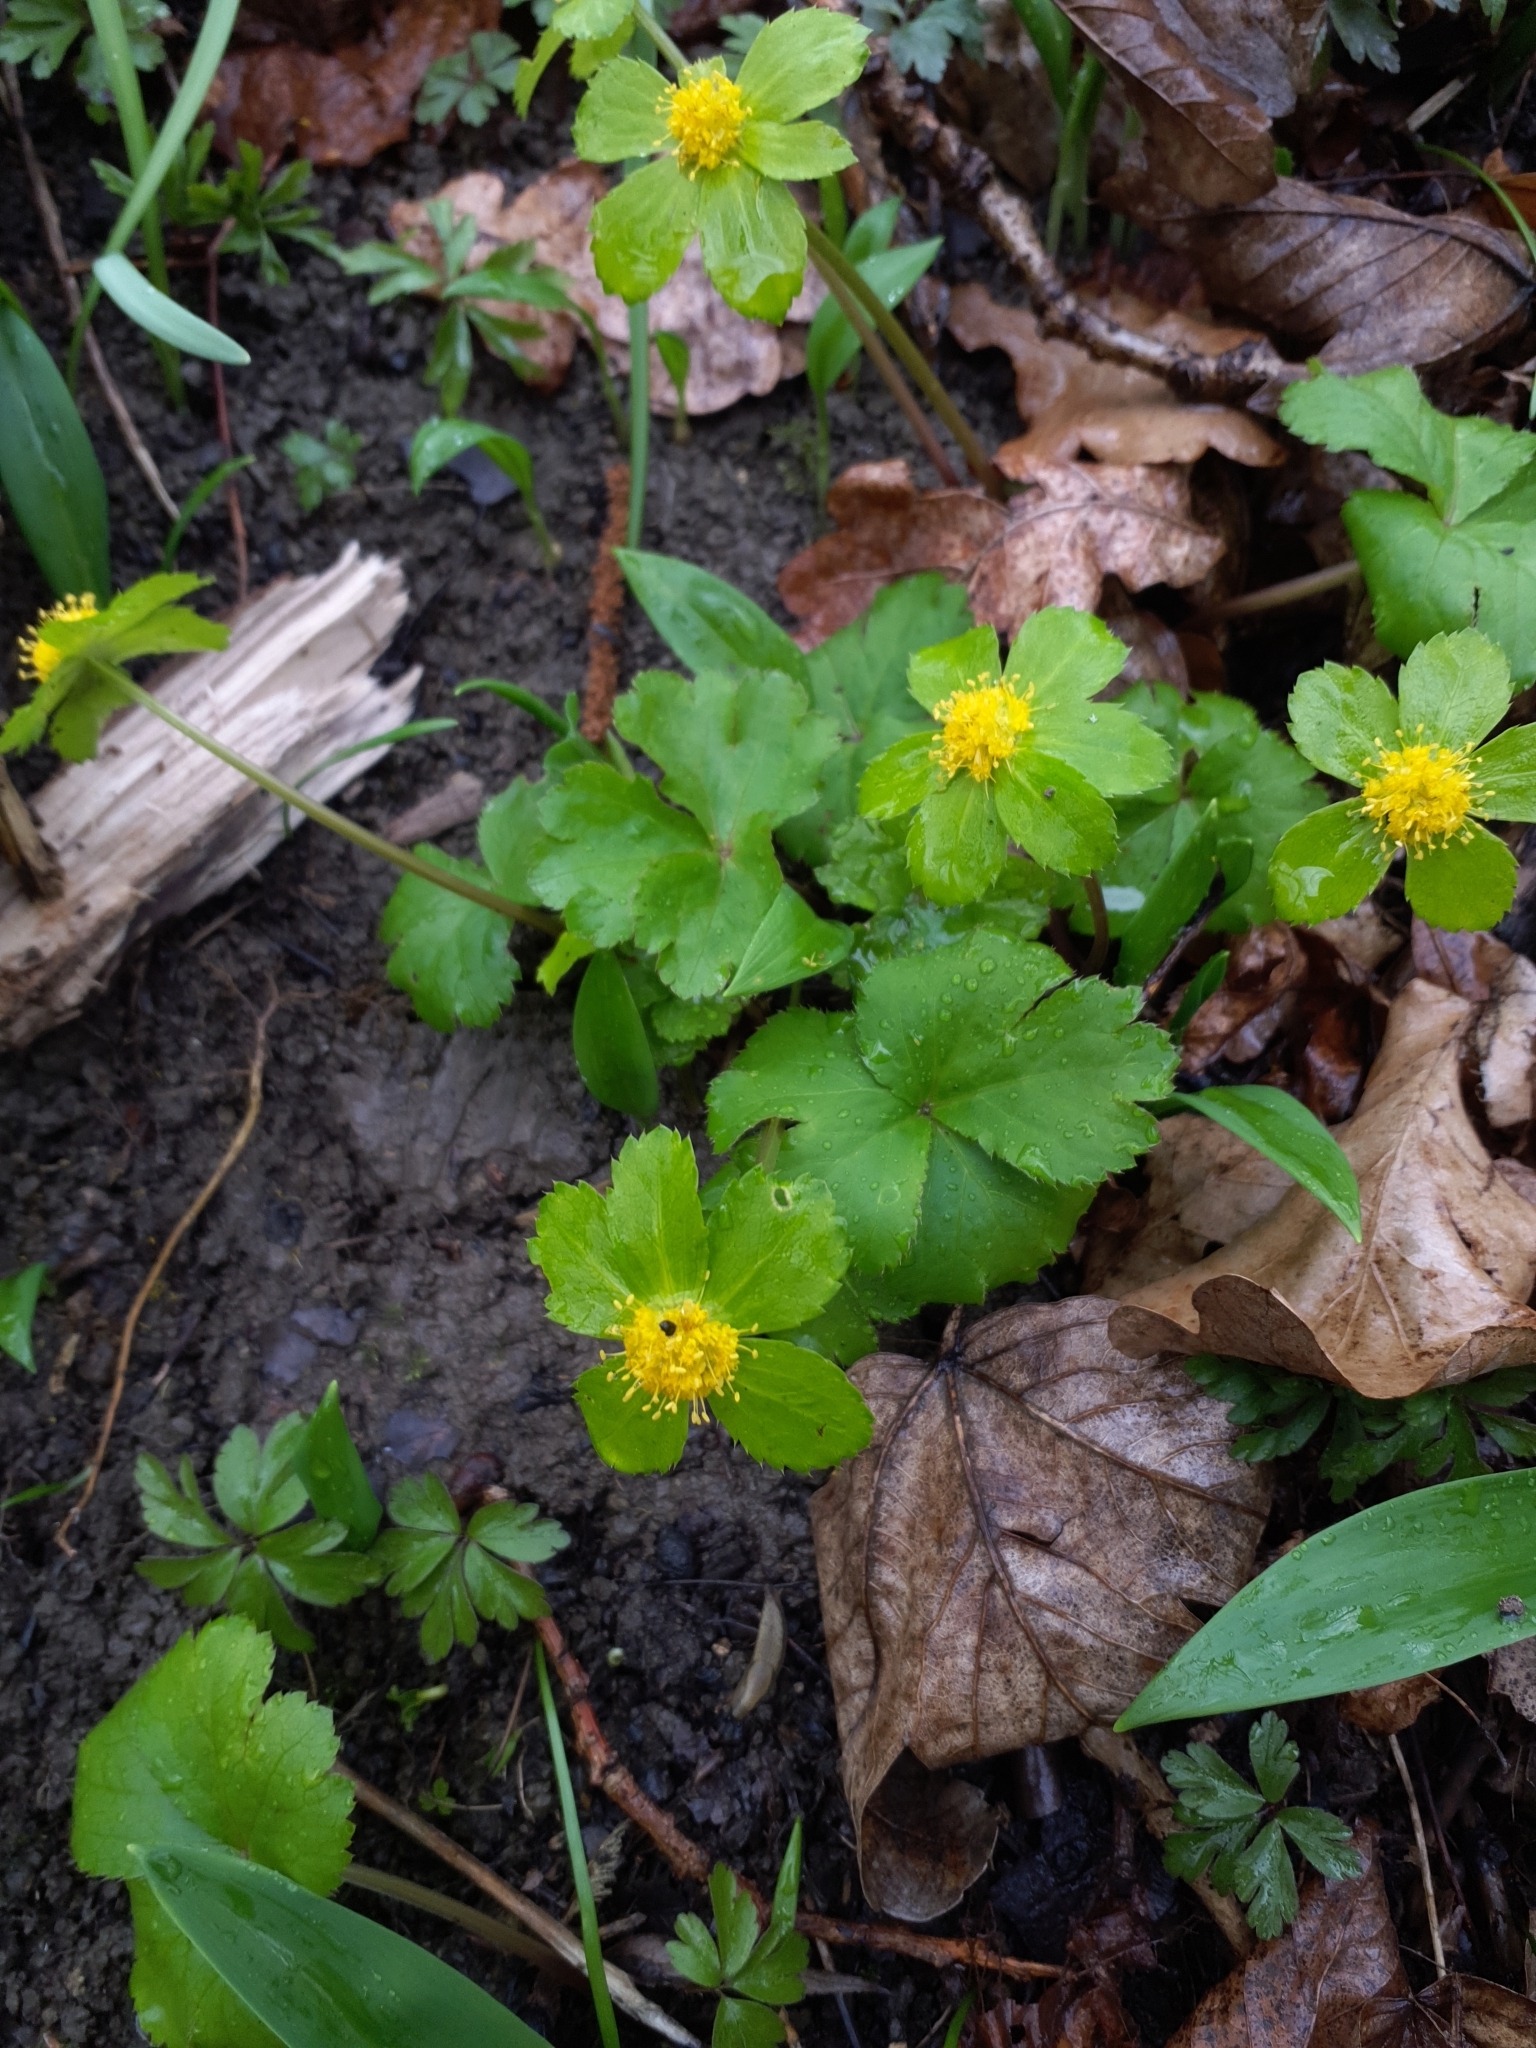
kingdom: Plantae
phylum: Tracheophyta
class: Magnoliopsida
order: Apiales
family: Apiaceae
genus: Sanicula
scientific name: Sanicula epipactis
